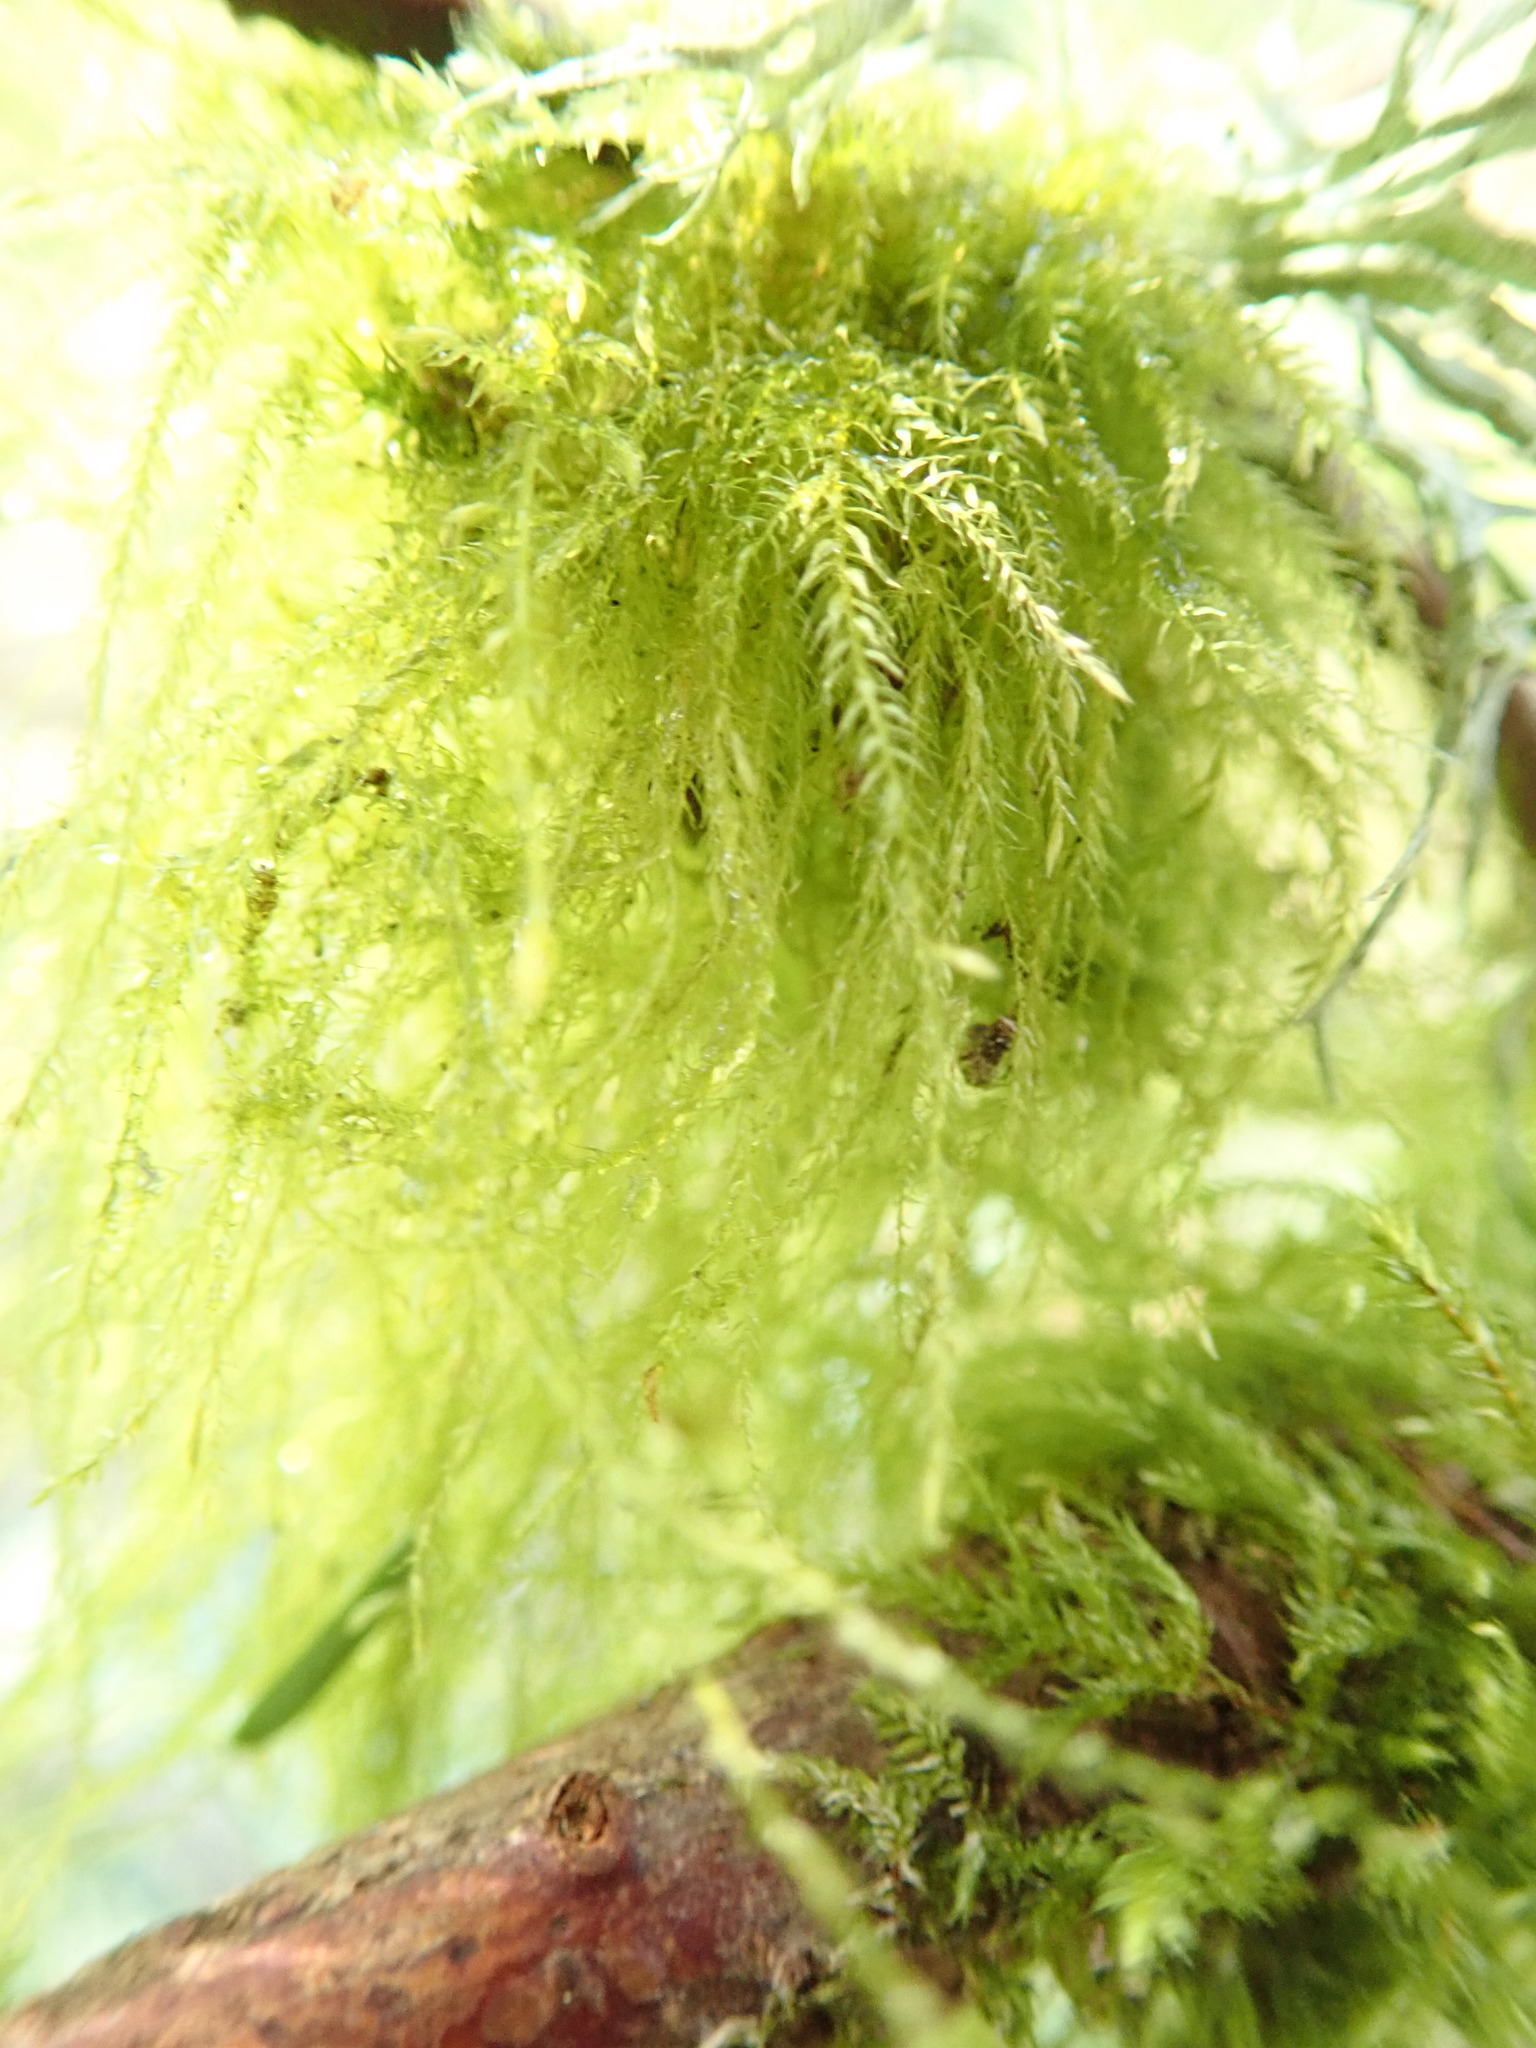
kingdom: Plantae
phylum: Bryophyta
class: Bryopsida
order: Hypnales
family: Lembophyllaceae
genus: Pseudisothecium
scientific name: Pseudisothecium stoloniferum
